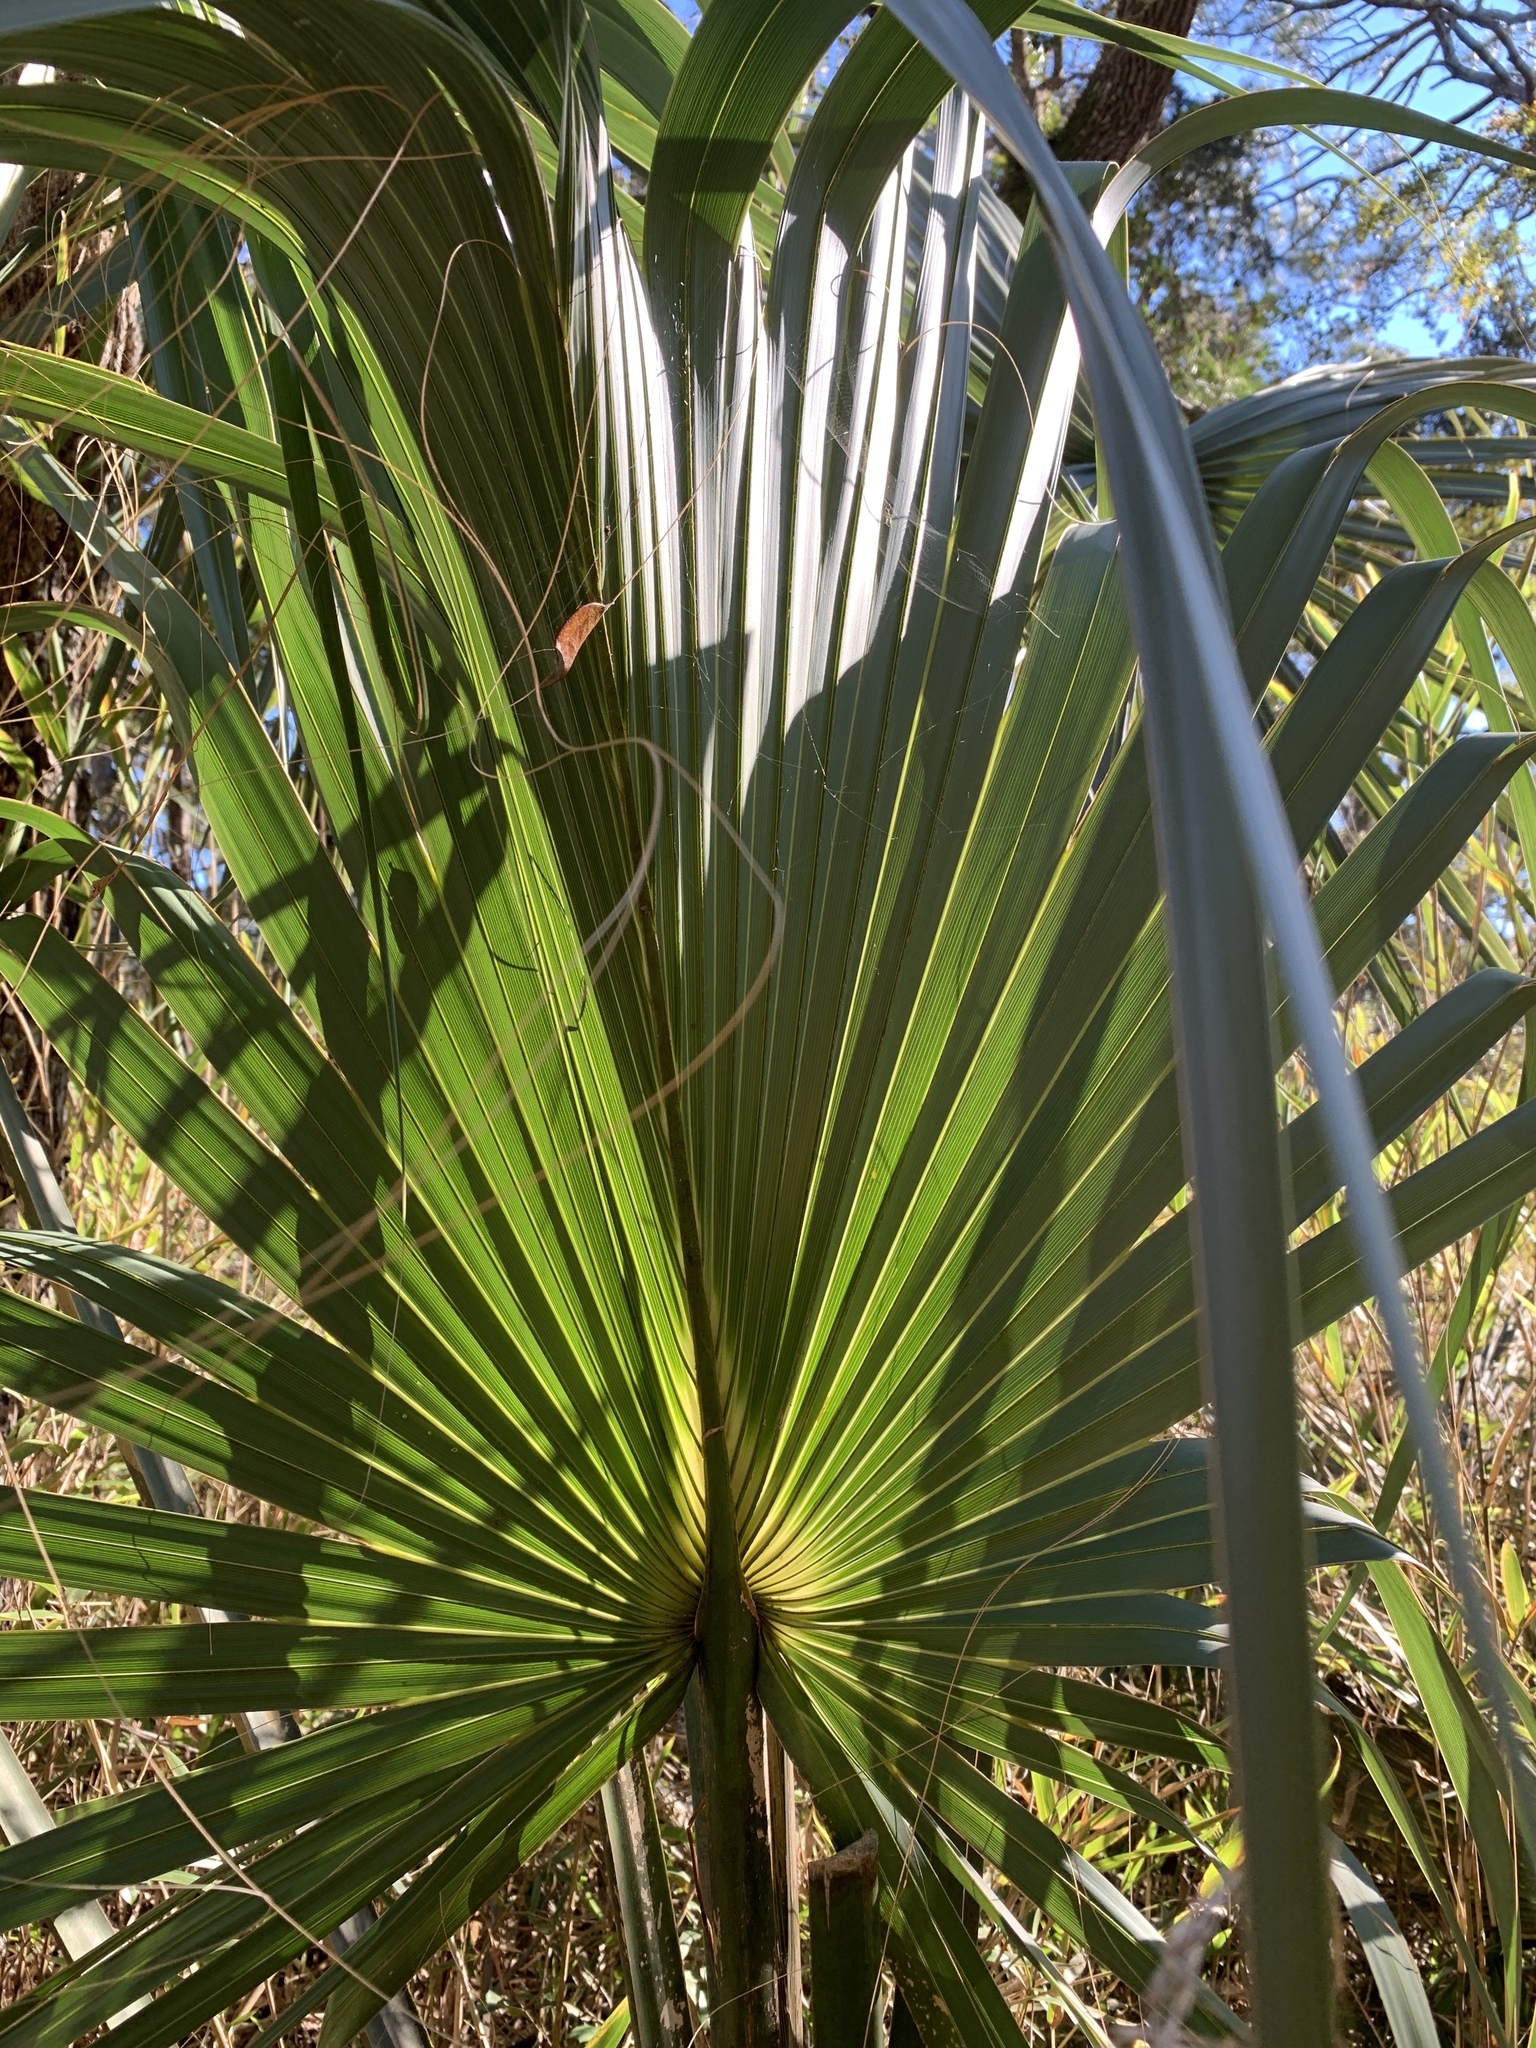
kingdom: Plantae
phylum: Tracheophyta
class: Liliopsida
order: Arecales
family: Arecaceae
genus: Sabal
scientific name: Sabal palmetto
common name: Blue palmetto
